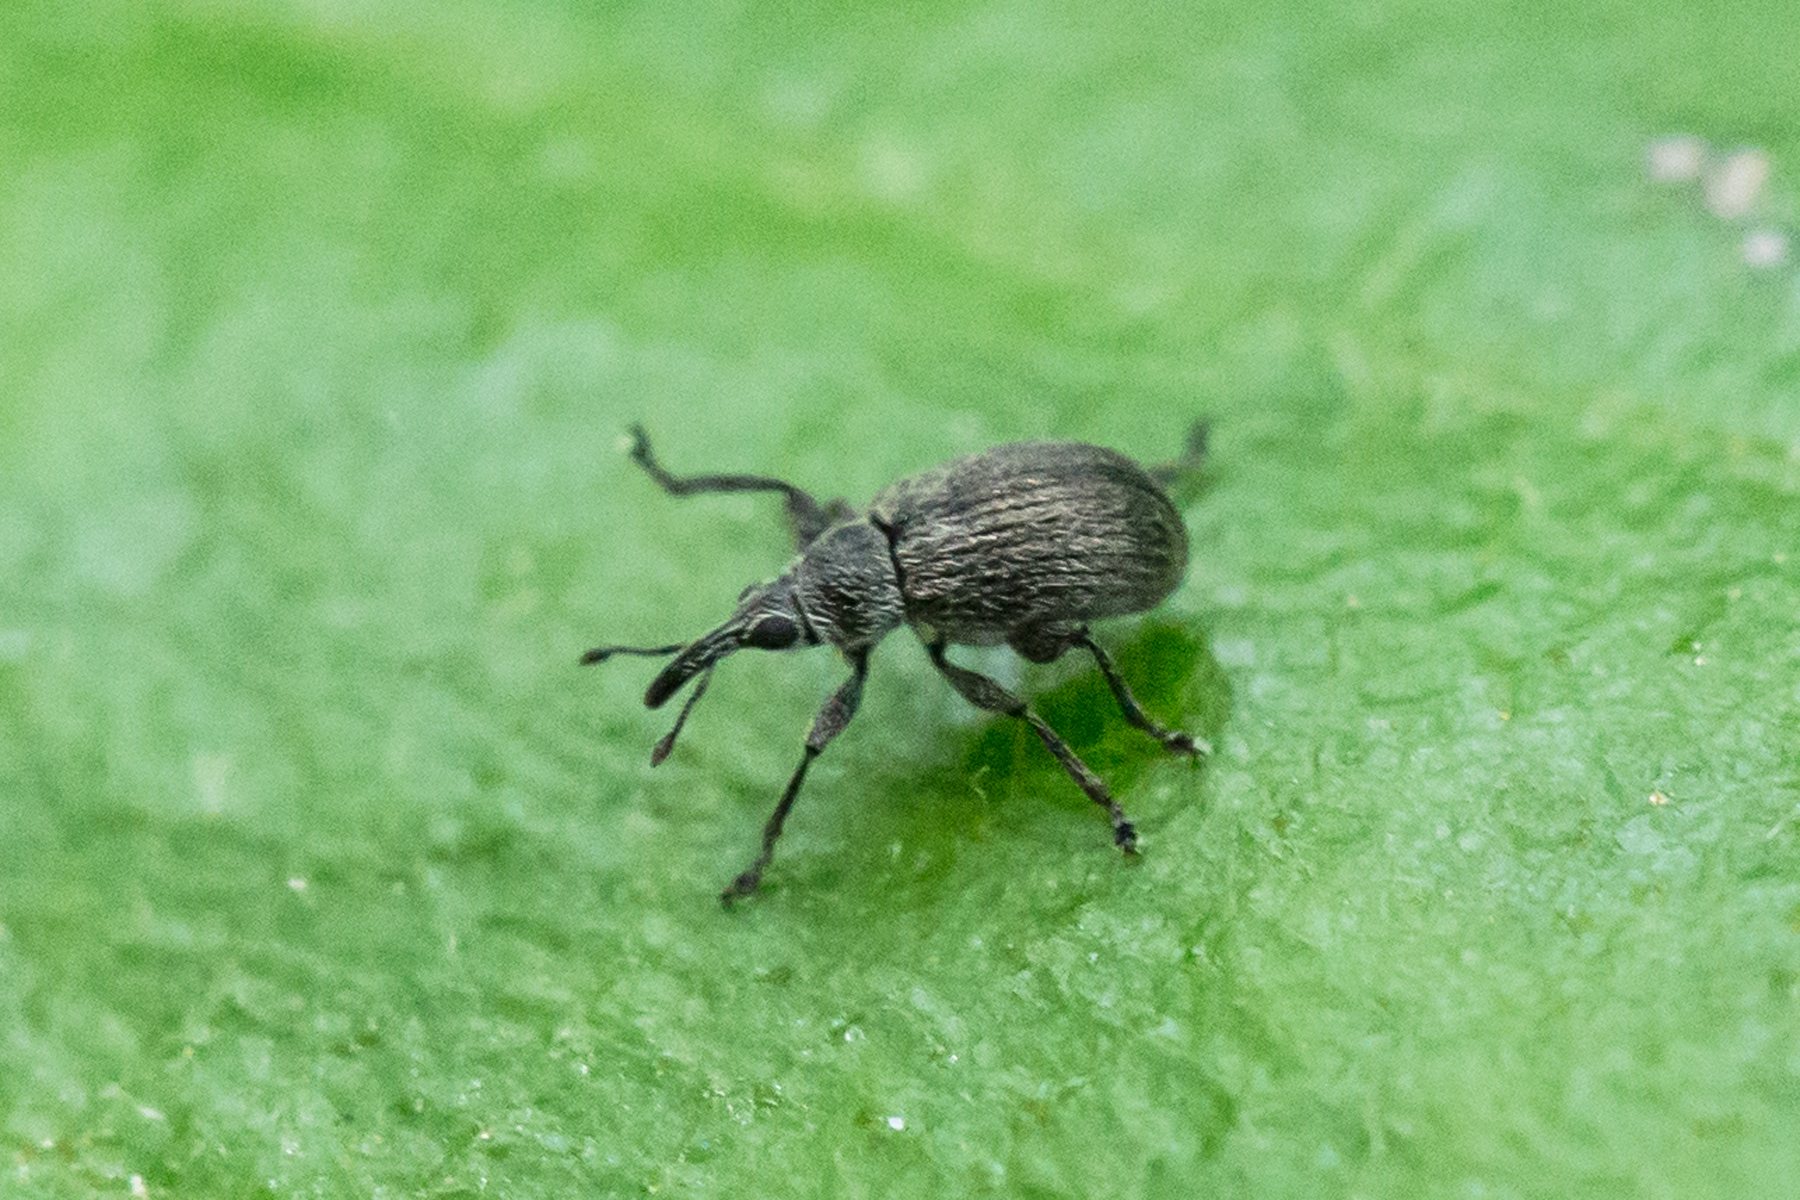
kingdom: Animalia
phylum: Arthropoda
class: Insecta
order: Coleoptera
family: Brentidae
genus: Betulapion
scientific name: Betulapion simile
